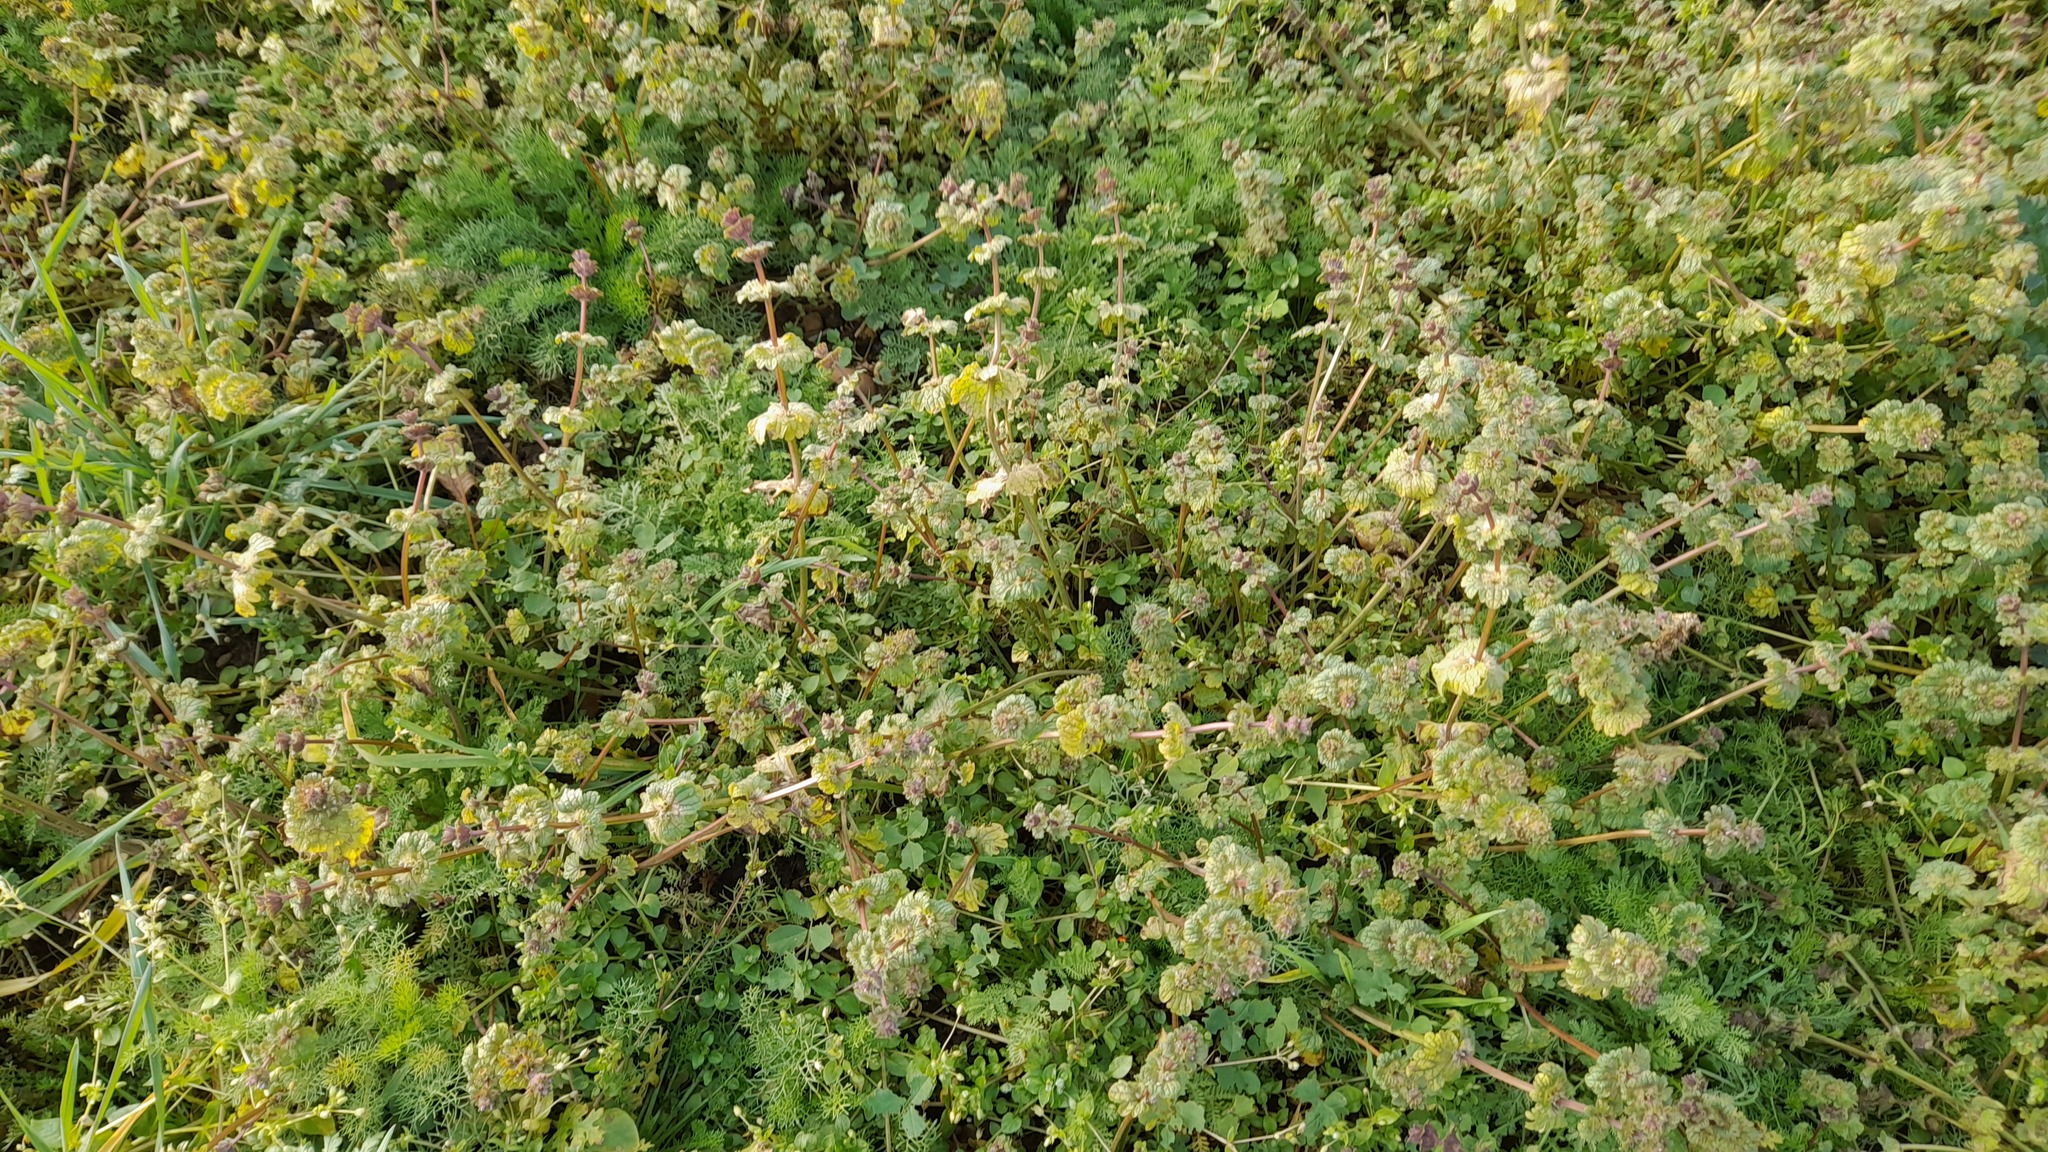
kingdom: Plantae
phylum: Tracheophyta
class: Magnoliopsida
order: Lamiales
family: Lamiaceae
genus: Lamium
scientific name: Lamium amplexicaule
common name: Henbit dead-nettle
